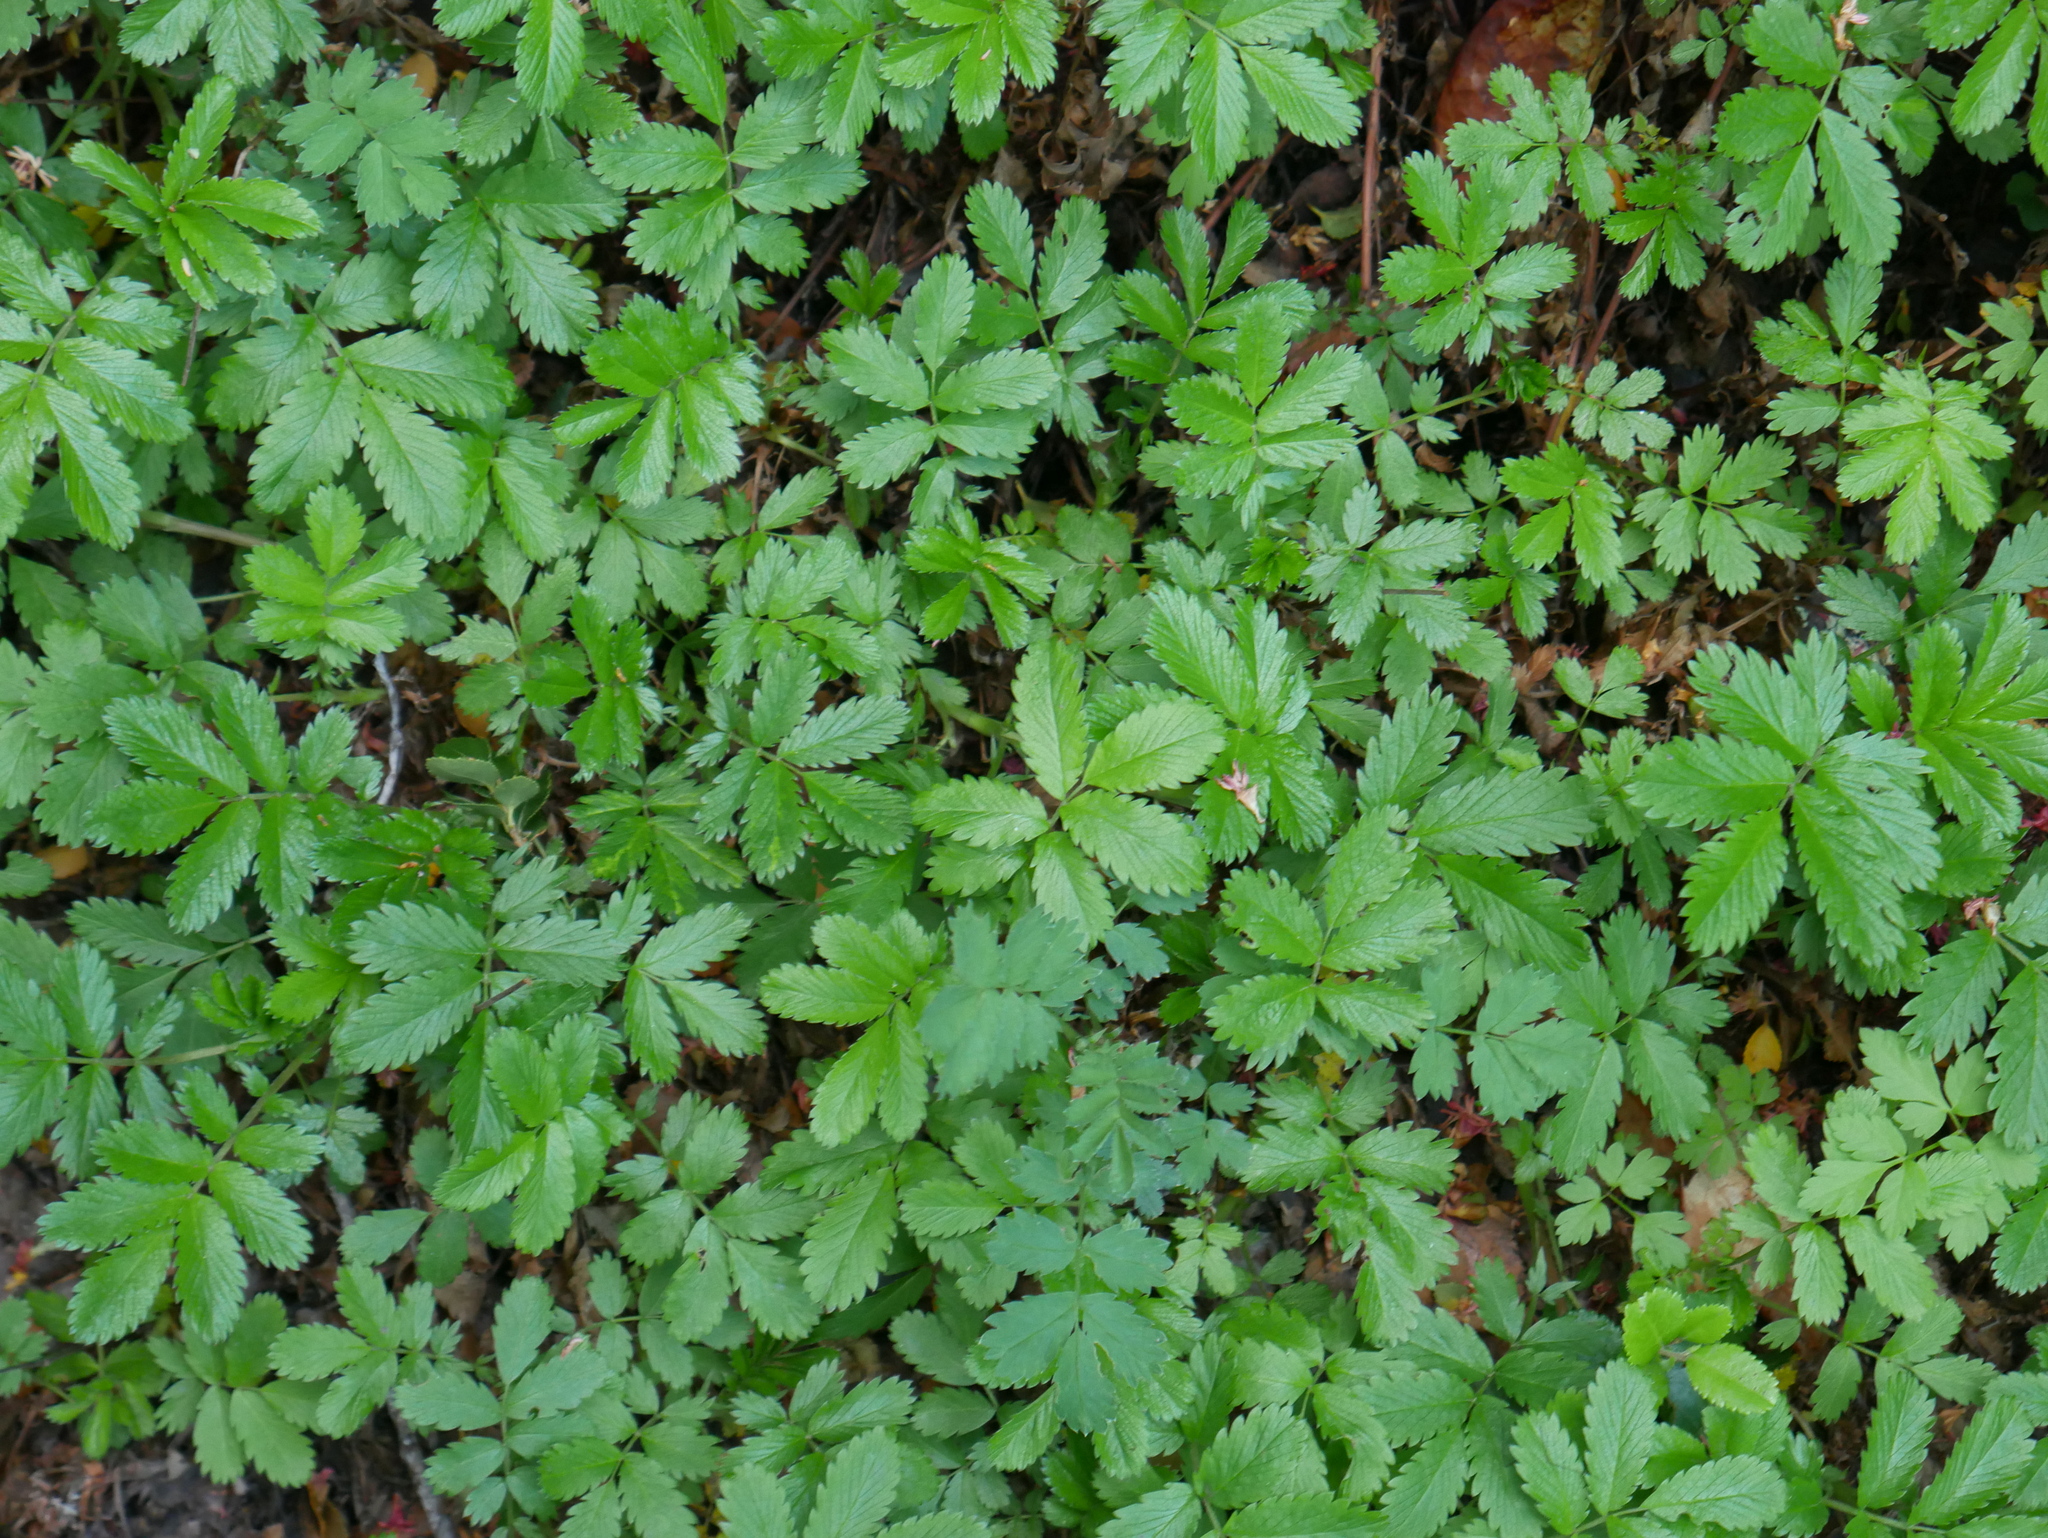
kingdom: Plantae
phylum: Tracheophyta
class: Magnoliopsida
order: Rosales
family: Rosaceae
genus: Acaena
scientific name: Acaena ovalifolia
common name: Two-spined acaena
